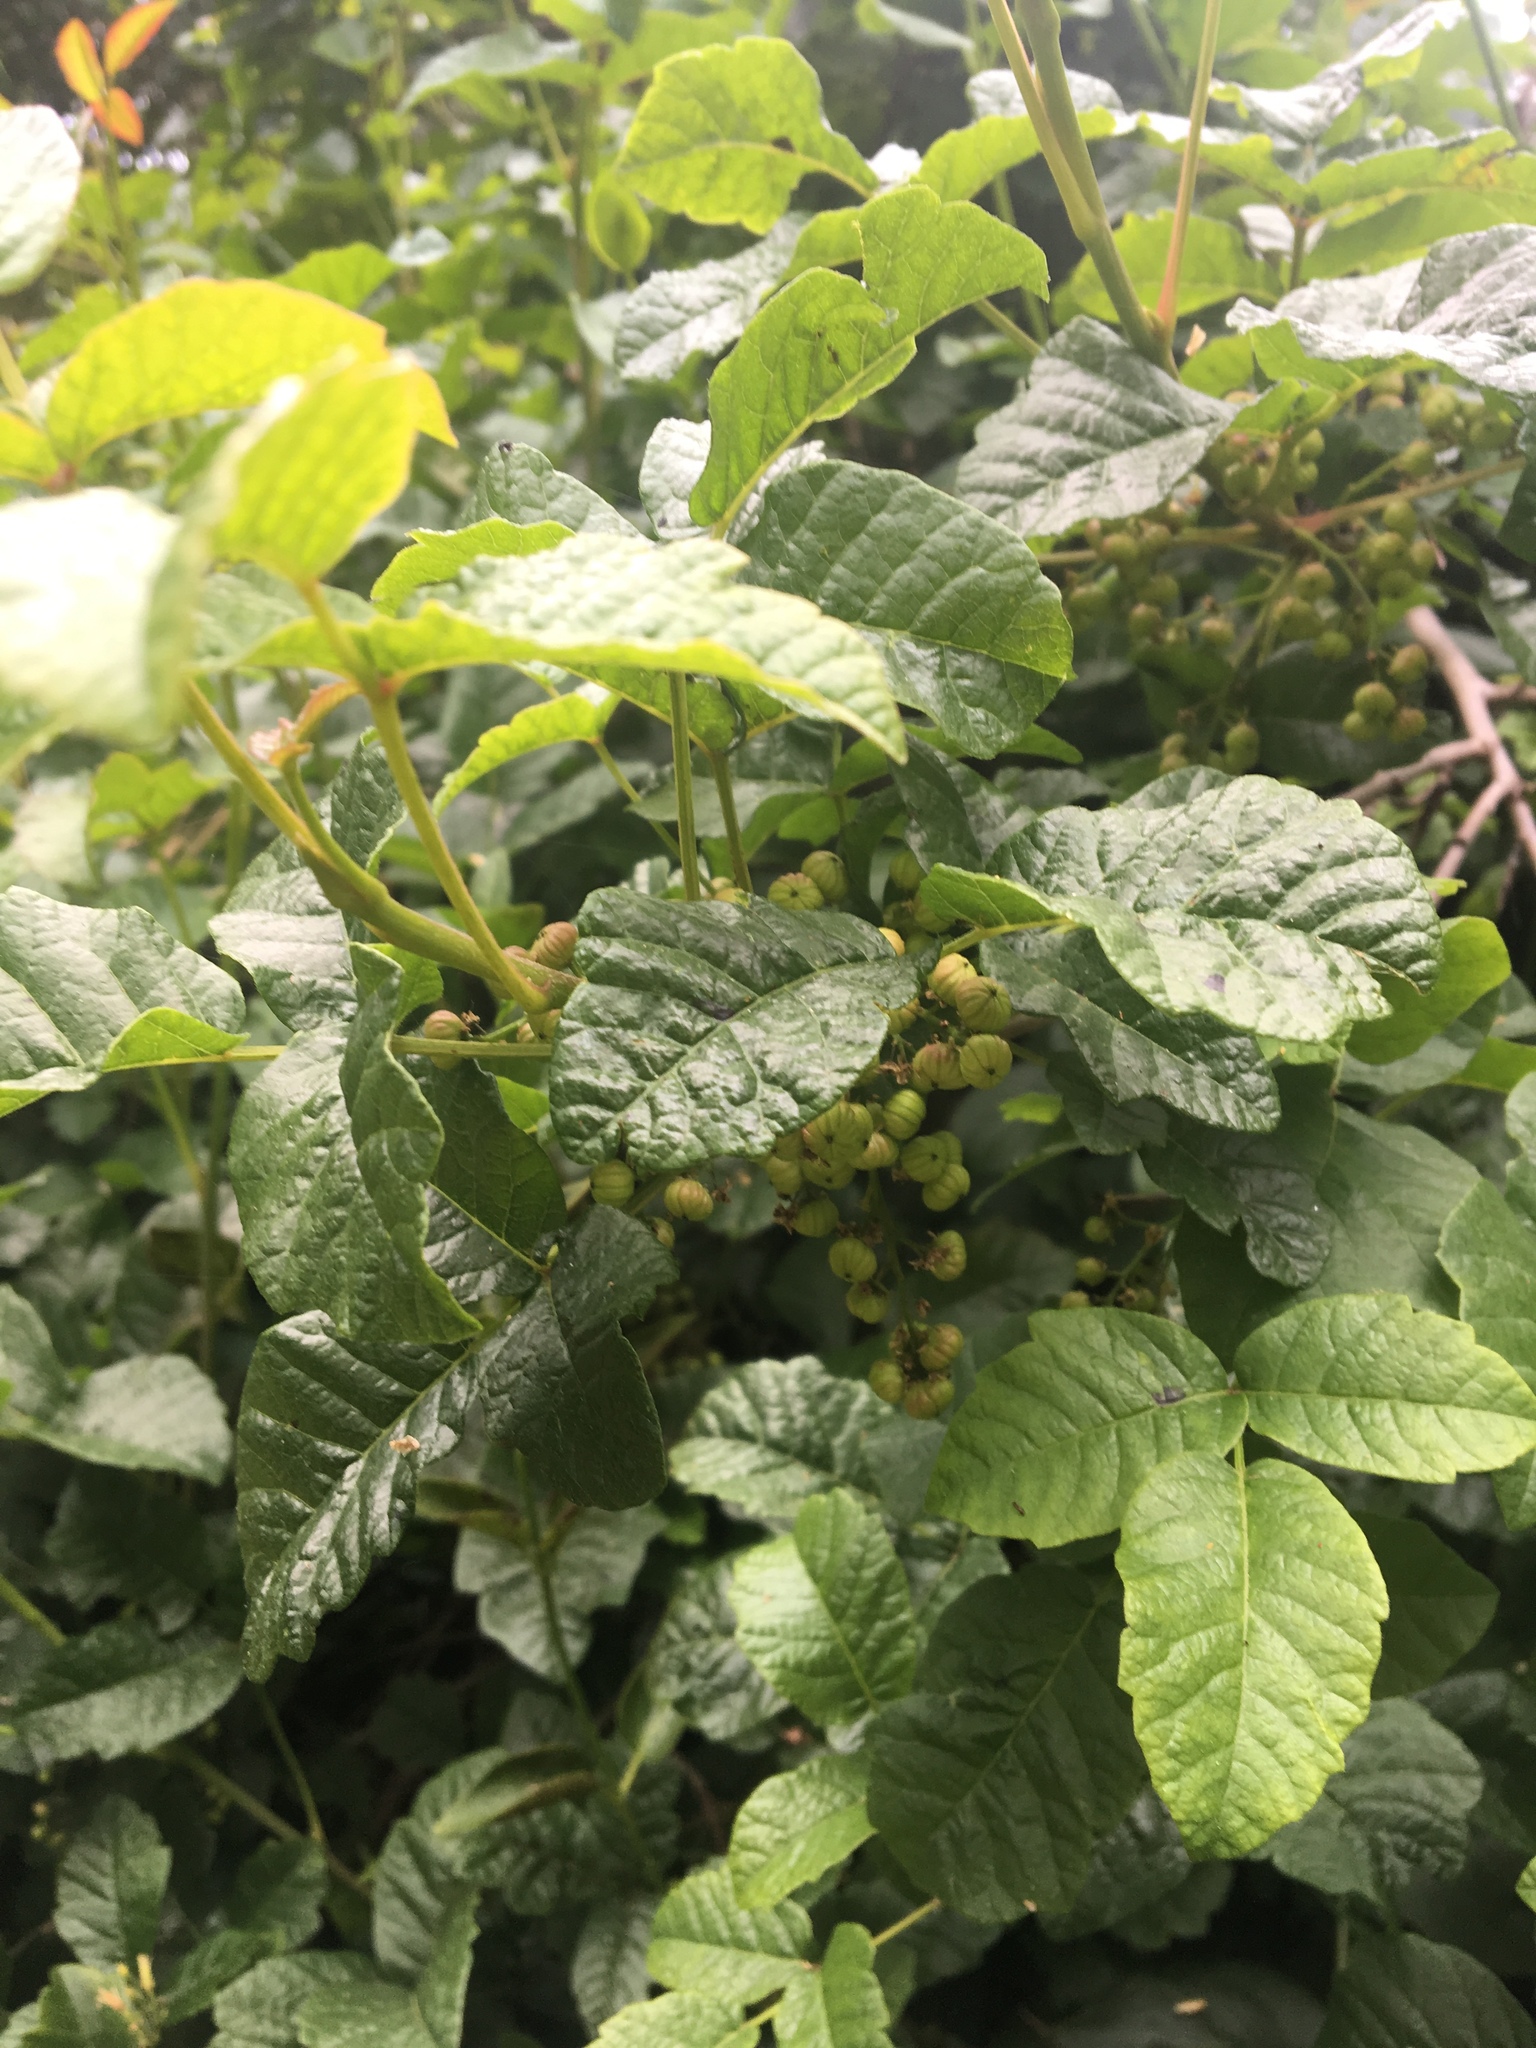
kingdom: Plantae
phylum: Tracheophyta
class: Magnoliopsida
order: Sapindales
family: Anacardiaceae
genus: Toxicodendron
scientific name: Toxicodendron diversilobum
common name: Pacific poison-oak
